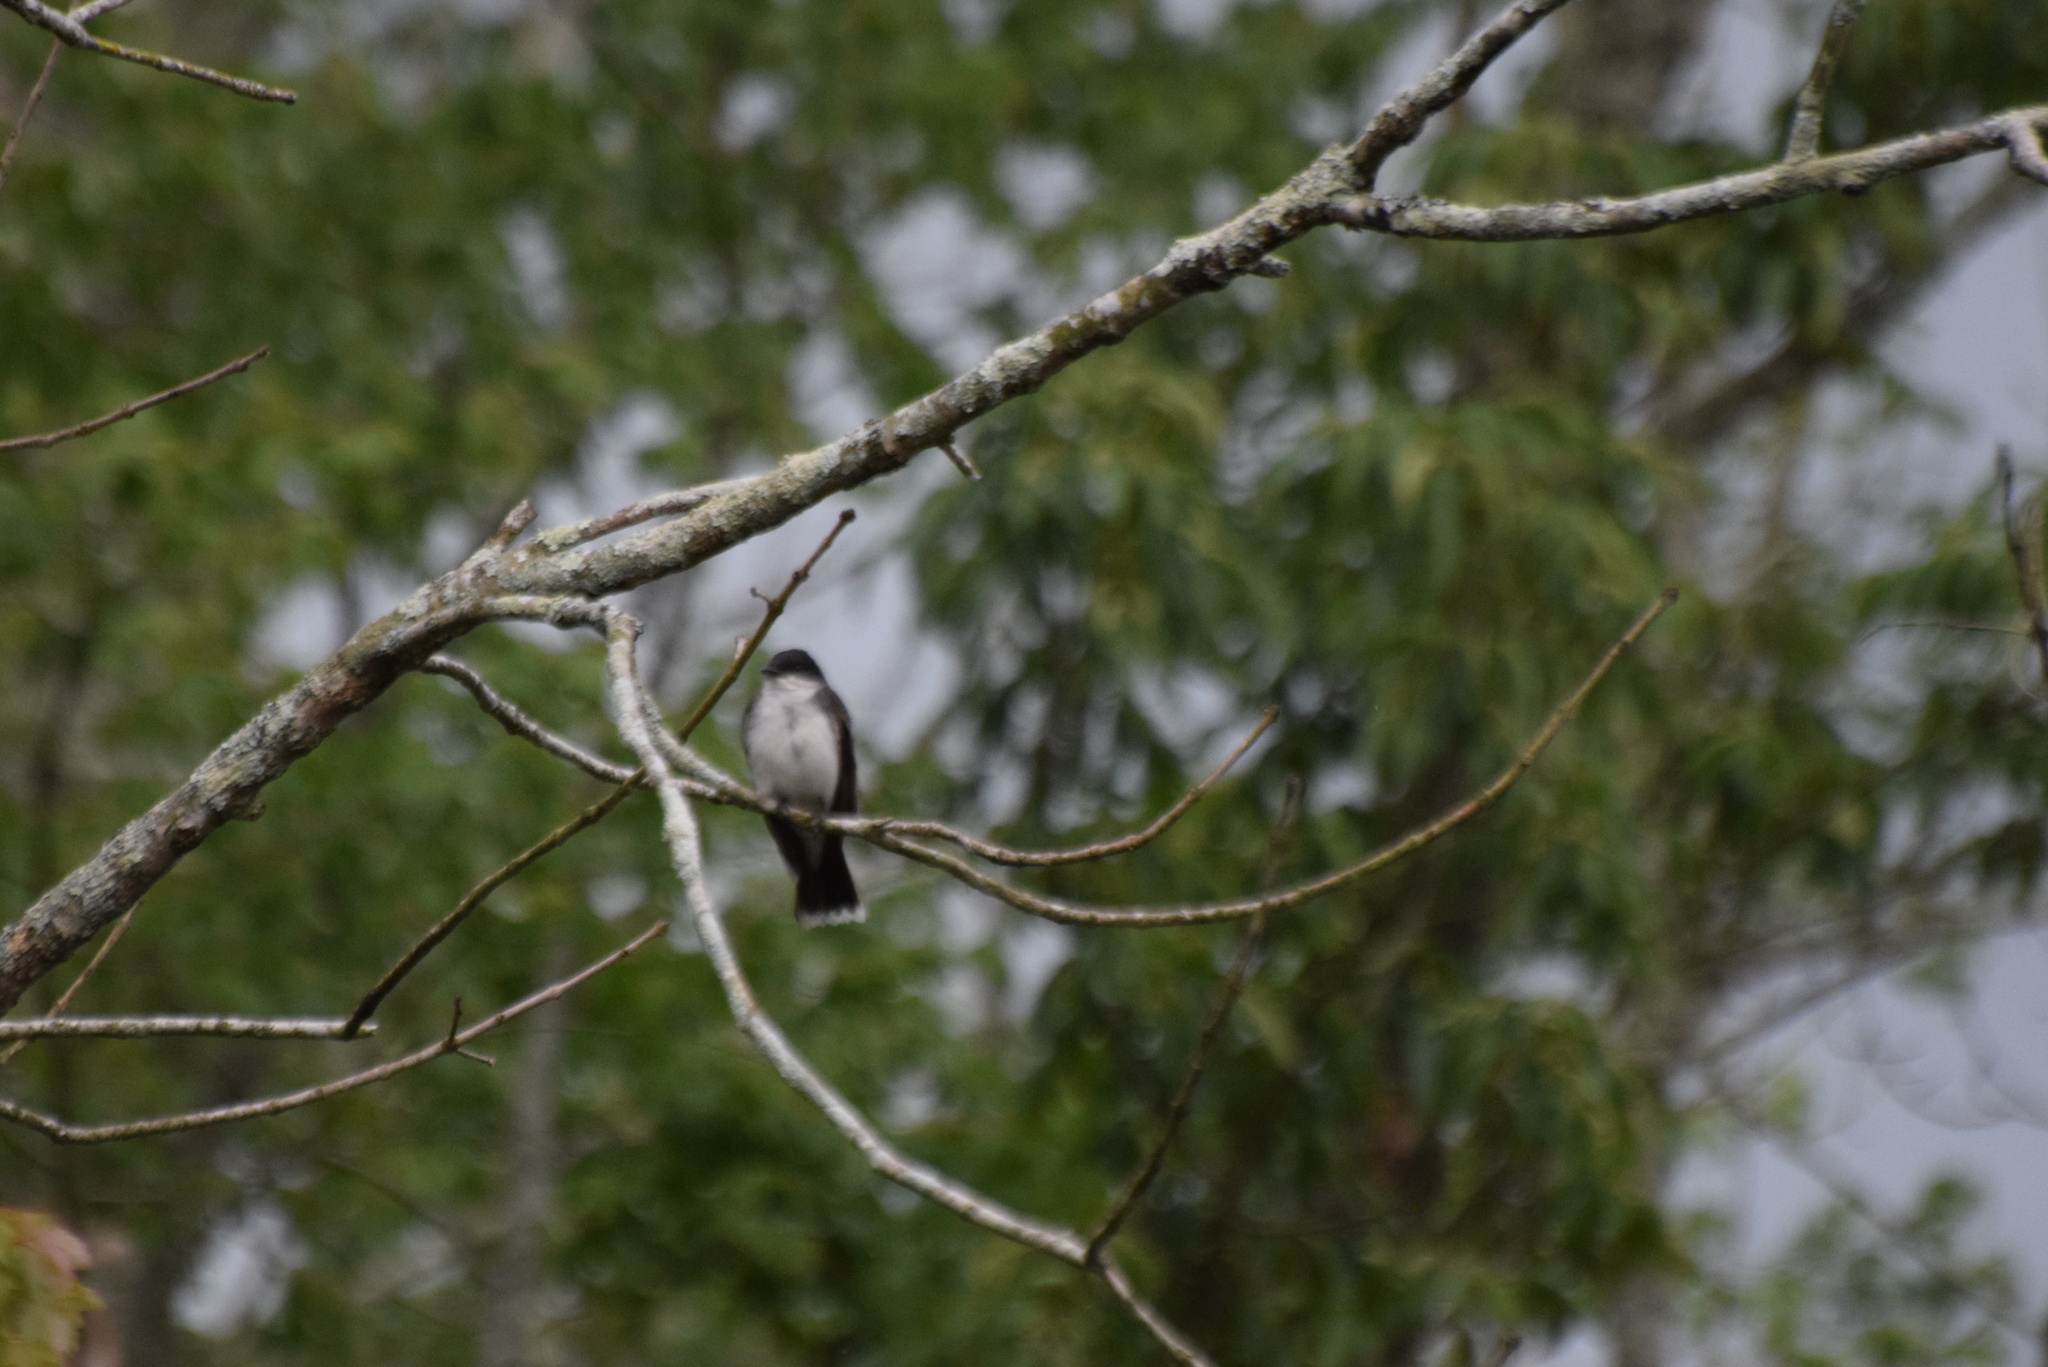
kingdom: Animalia
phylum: Chordata
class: Aves
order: Passeriformes
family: Tyrannidae
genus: Tyrannus
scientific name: Tyrannus tyrannus
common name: Eastern kingbird
